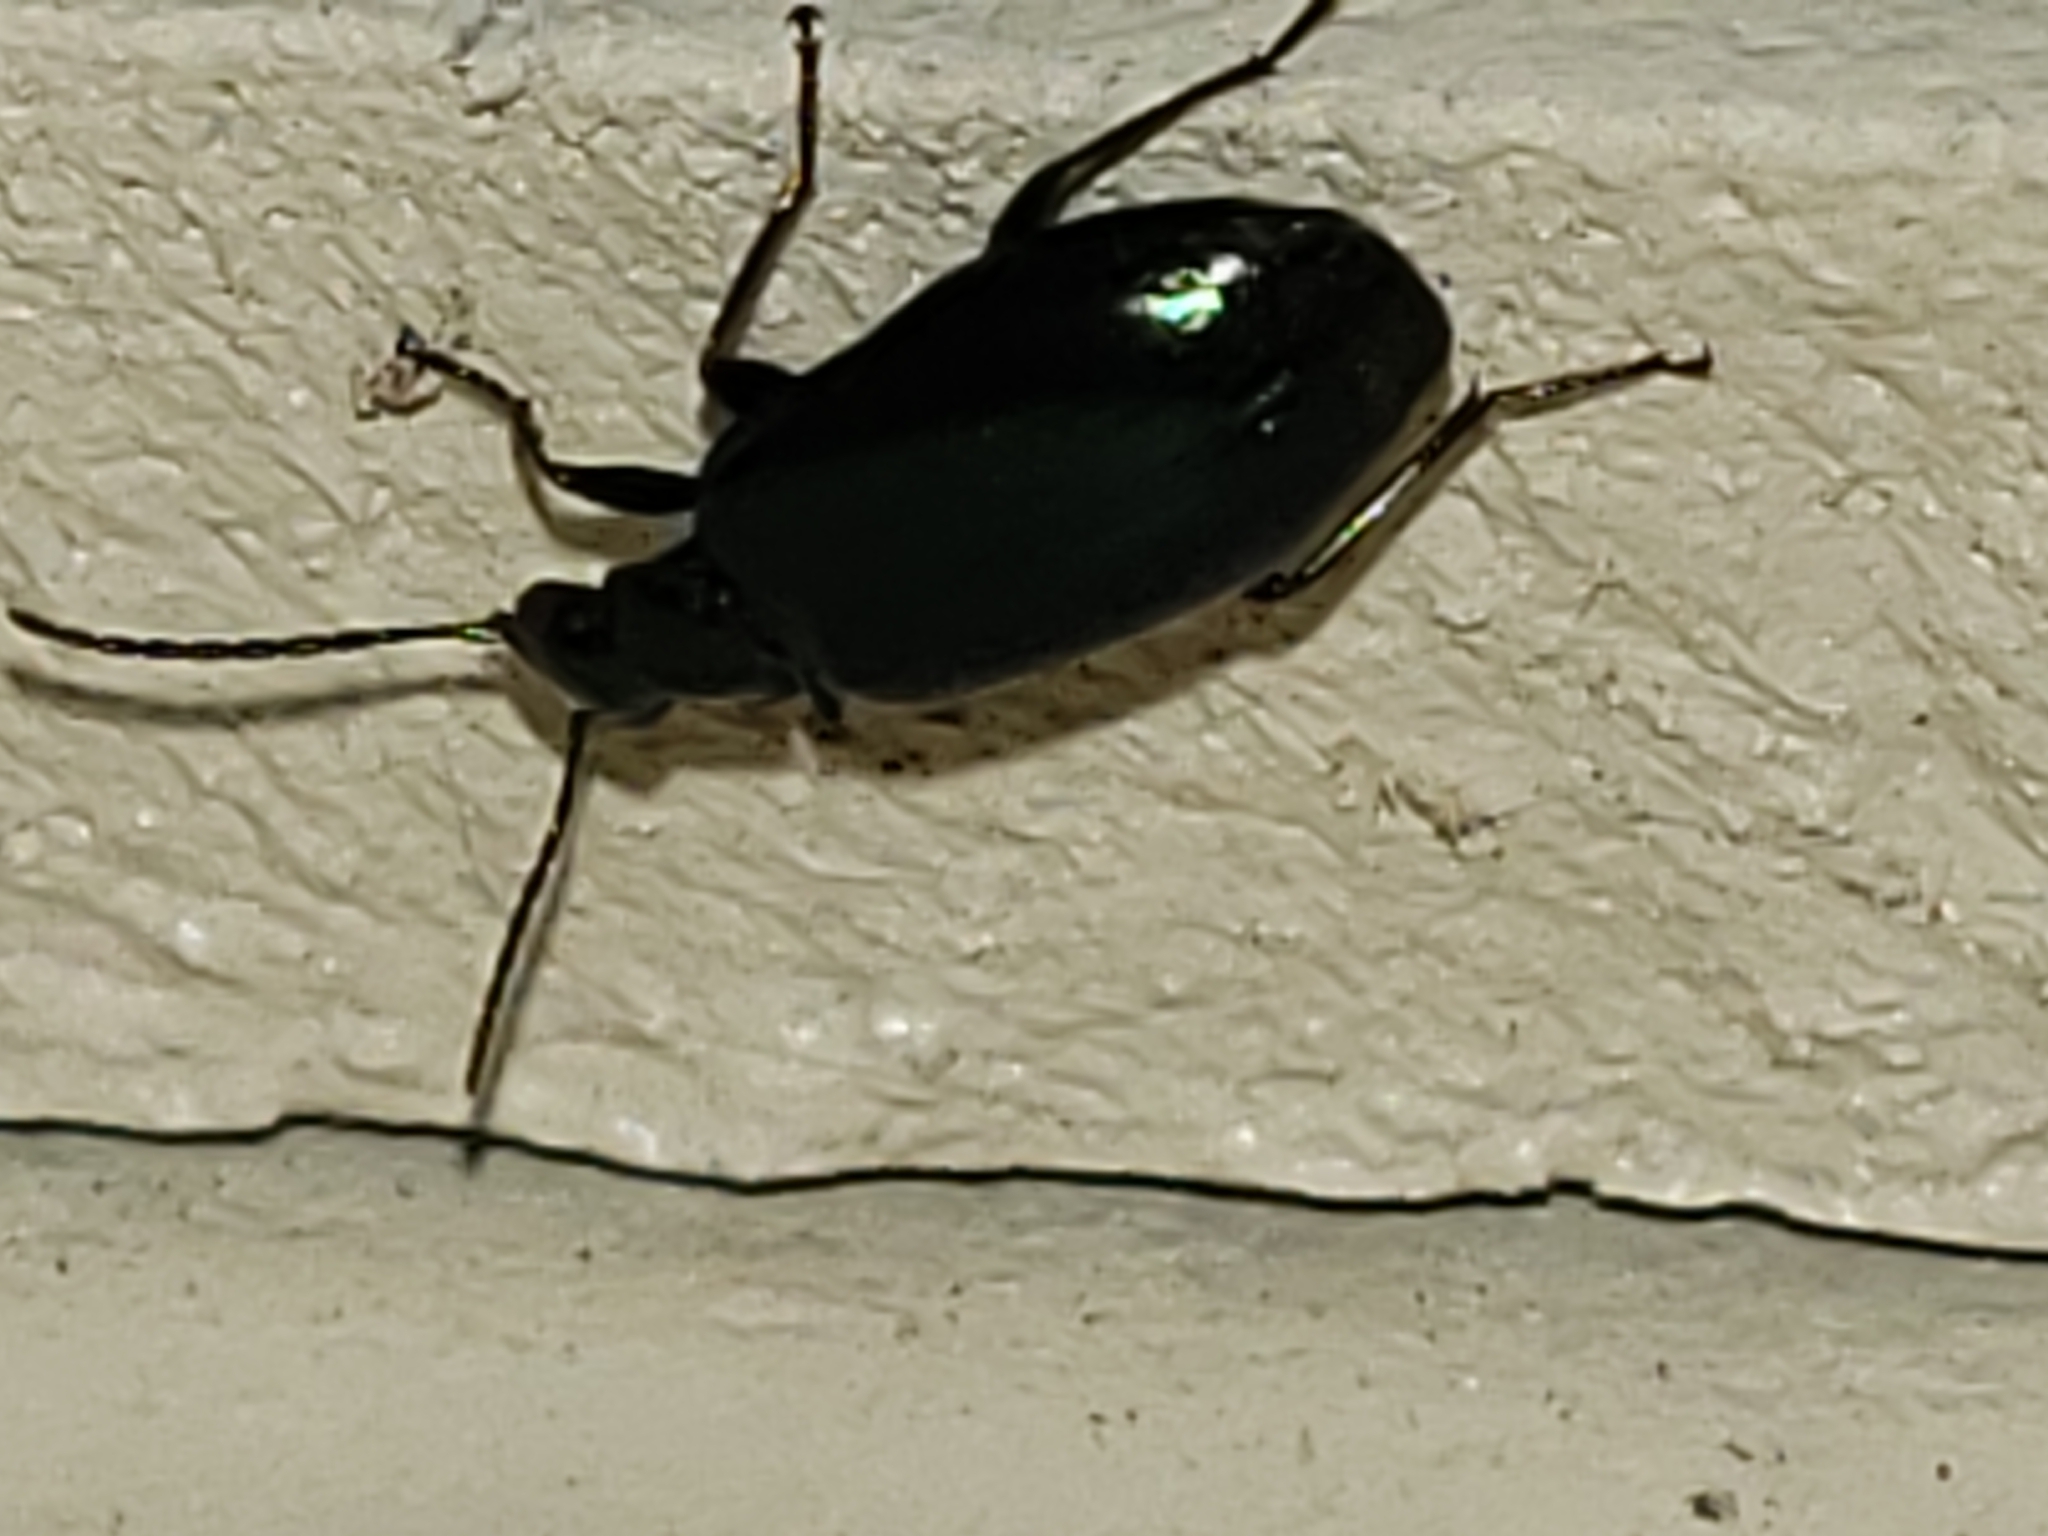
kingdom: Animalia
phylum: Arthropoda
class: Insecta
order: Coleoptera
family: Carabidae
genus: Lebia
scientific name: Lebia viridis
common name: Flower lebia beetle
